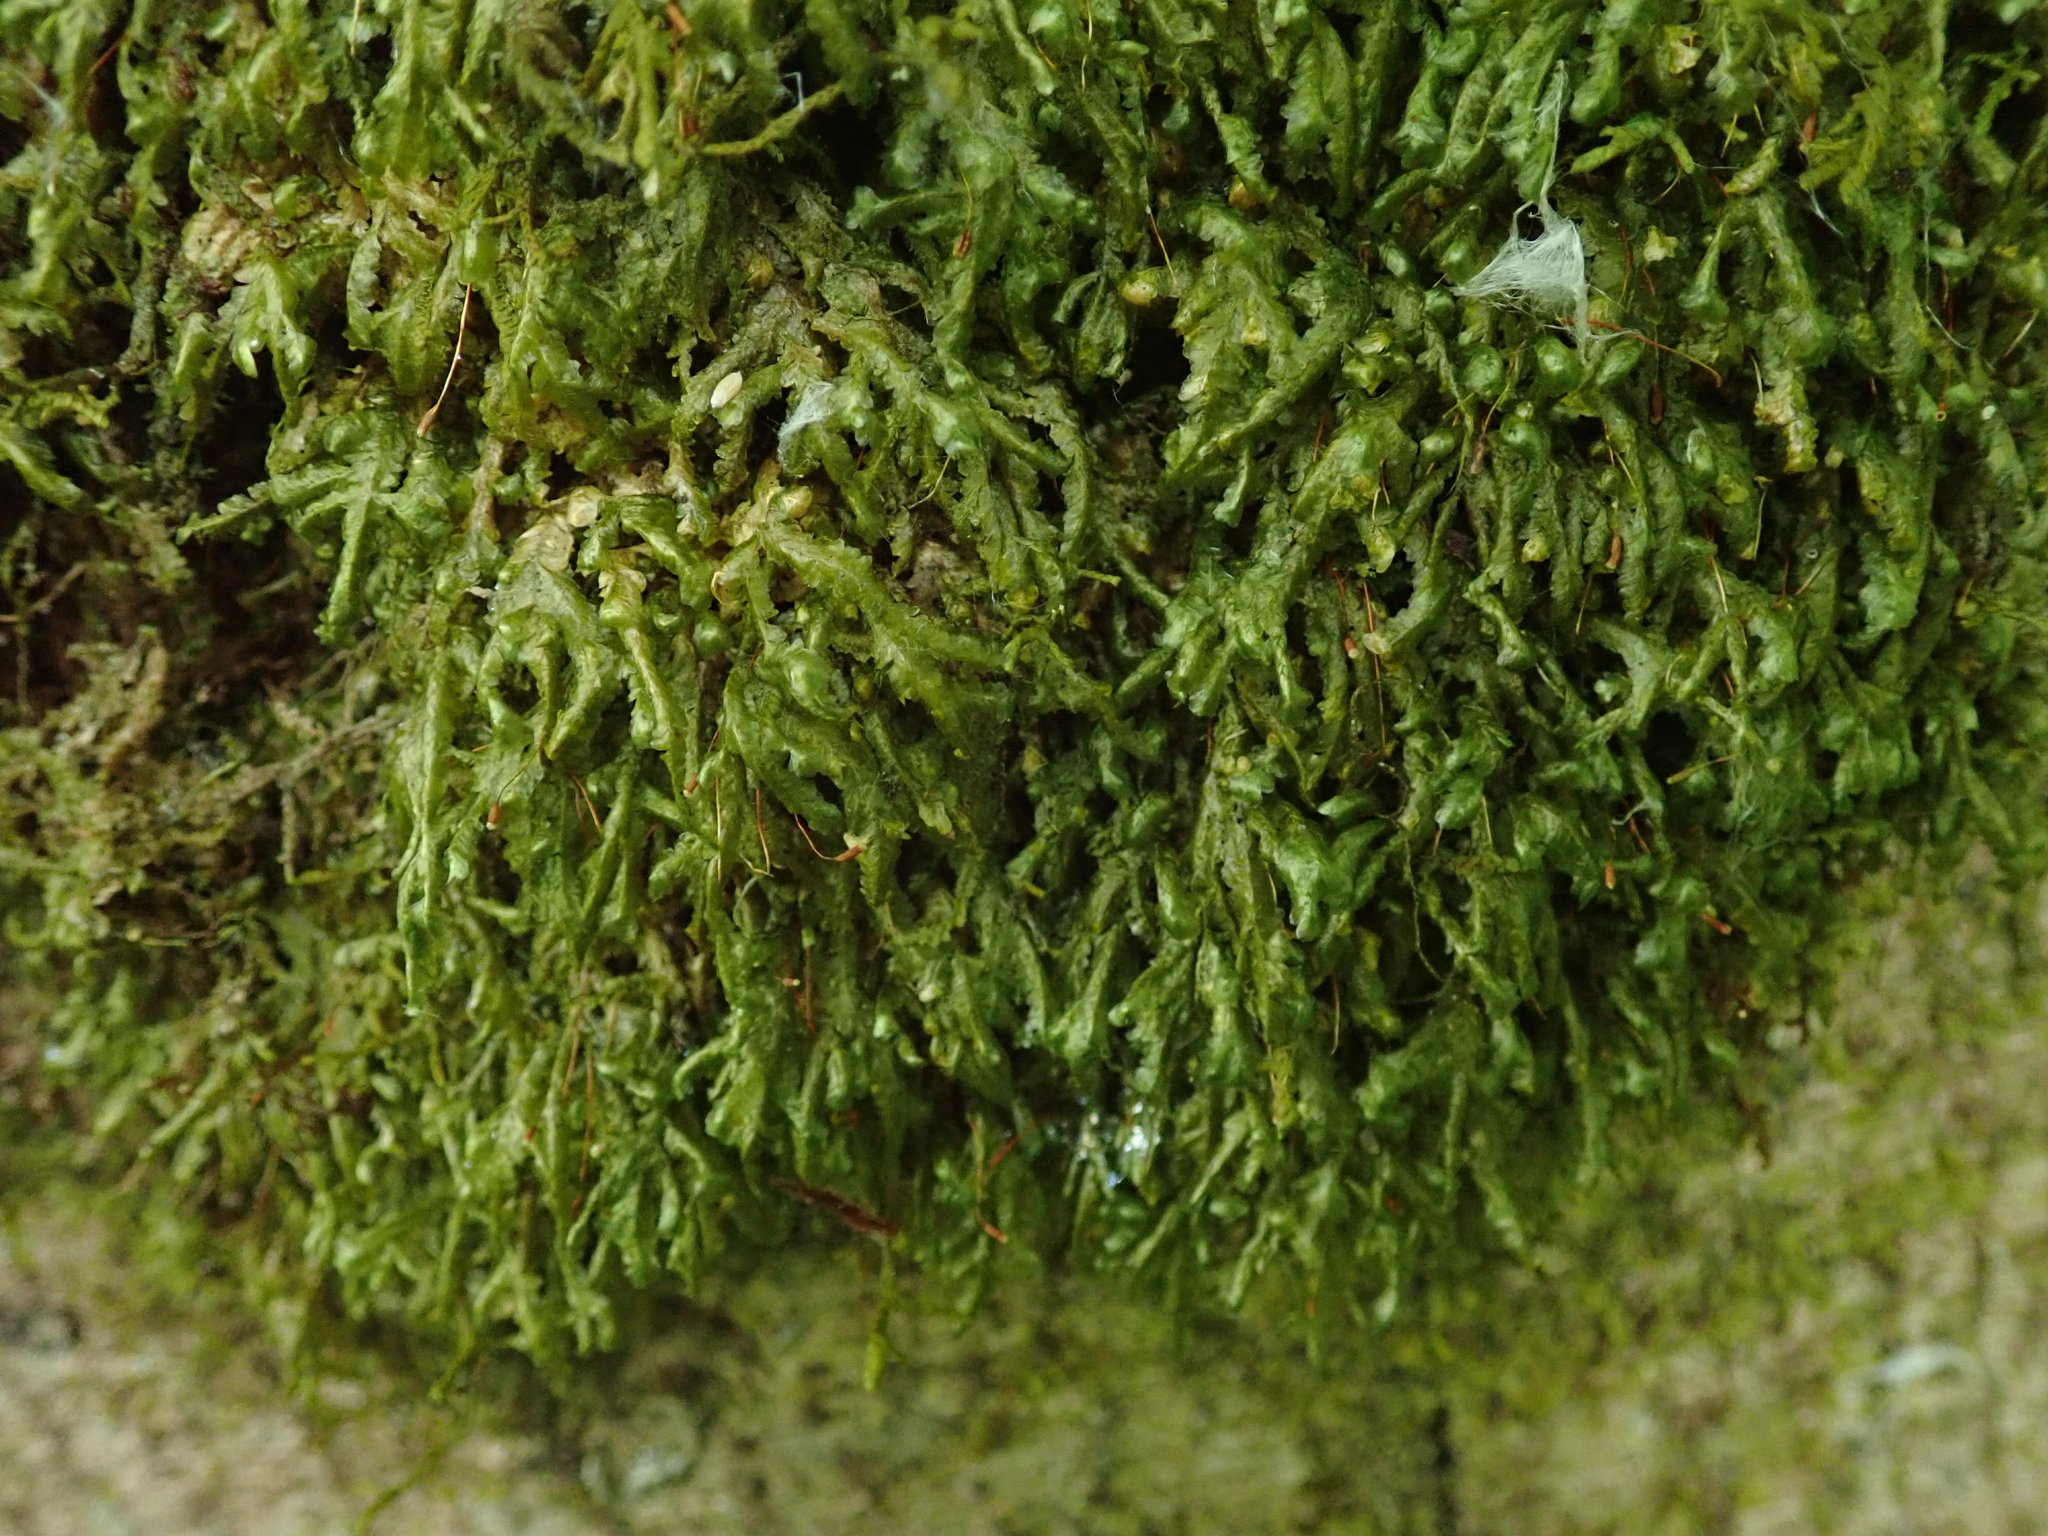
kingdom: Plantae
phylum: Bryophyta
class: Bryopsida
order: Hypnales
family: Neckeraceae
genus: Homalia
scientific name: Homalia trichomanoides
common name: Lime homalia moss
